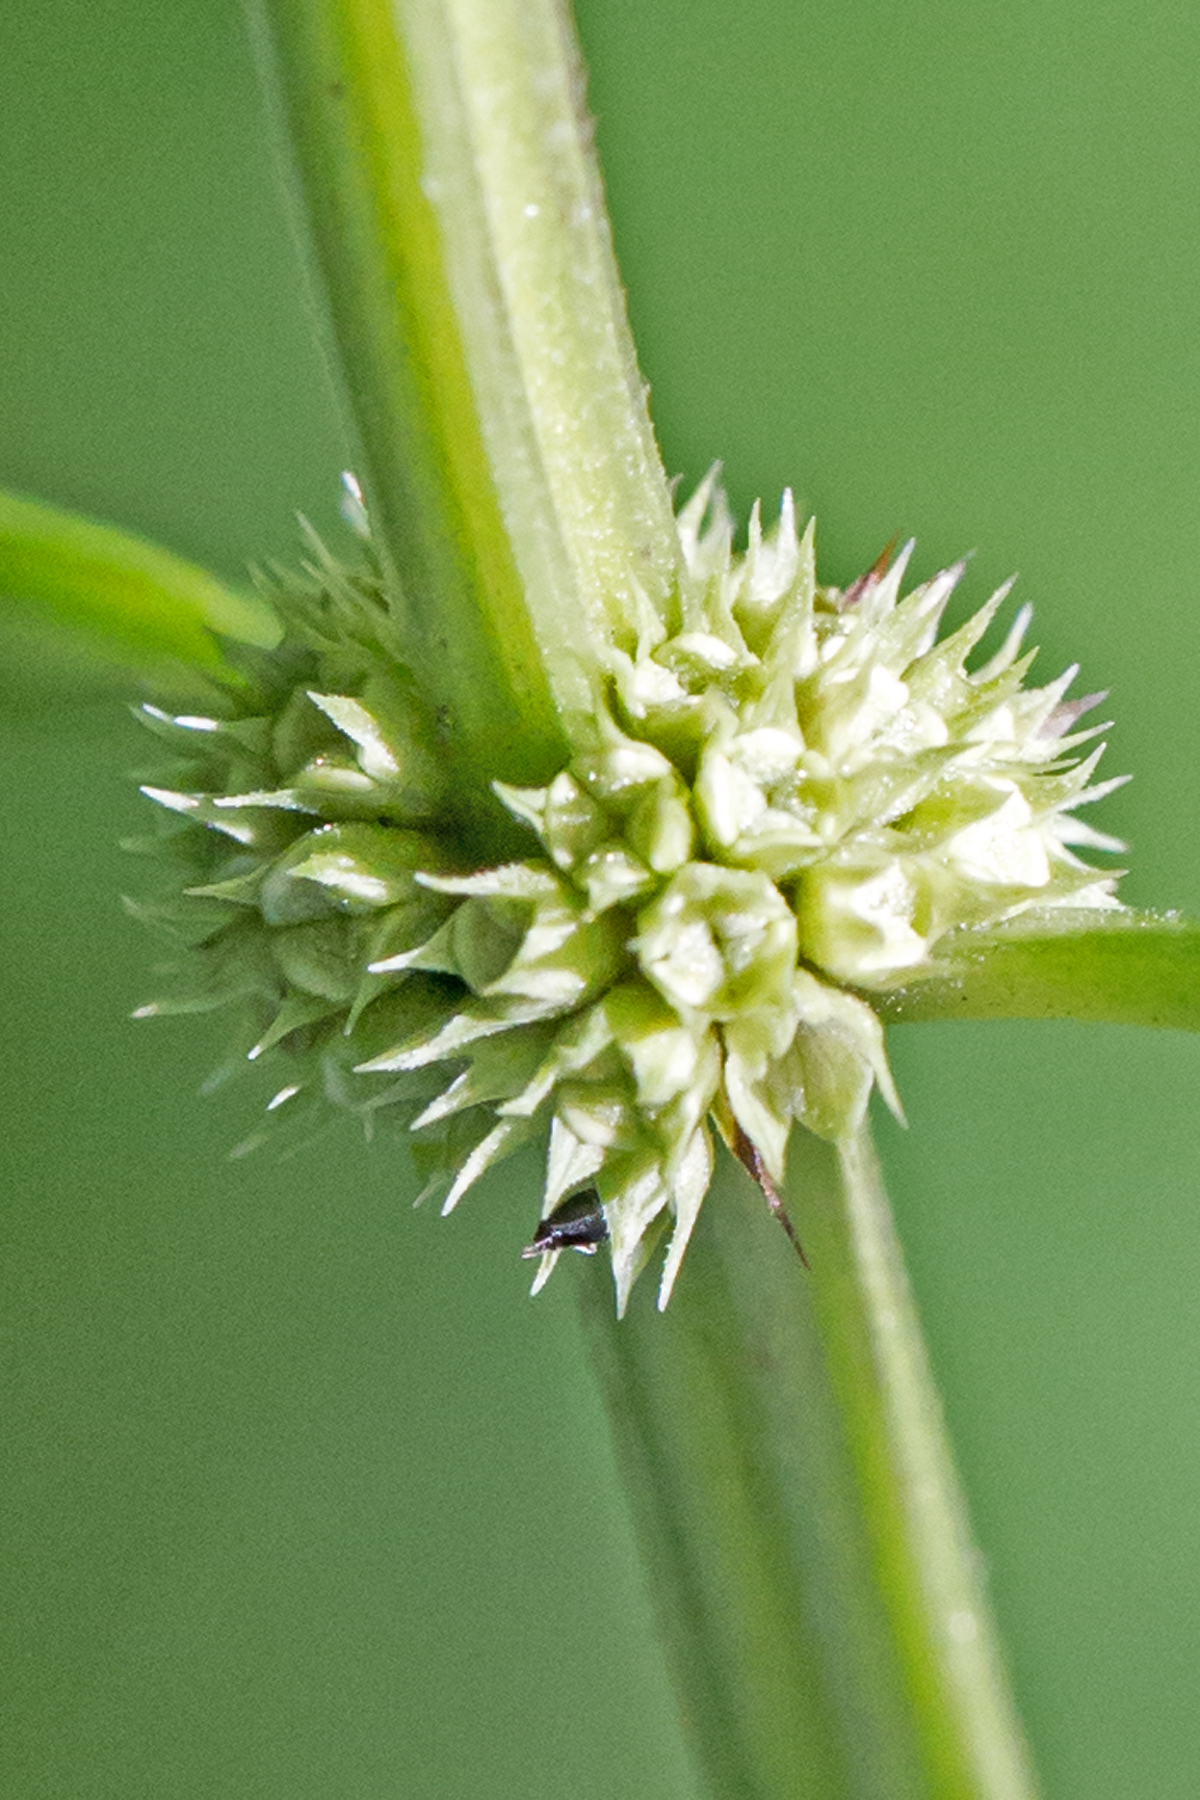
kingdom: Plantae
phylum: Tracheophyta
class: Magnoliopsida
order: Lamiales
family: Lamiaceae
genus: Lycopus
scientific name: Lycopus americanus
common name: American bugleweed
